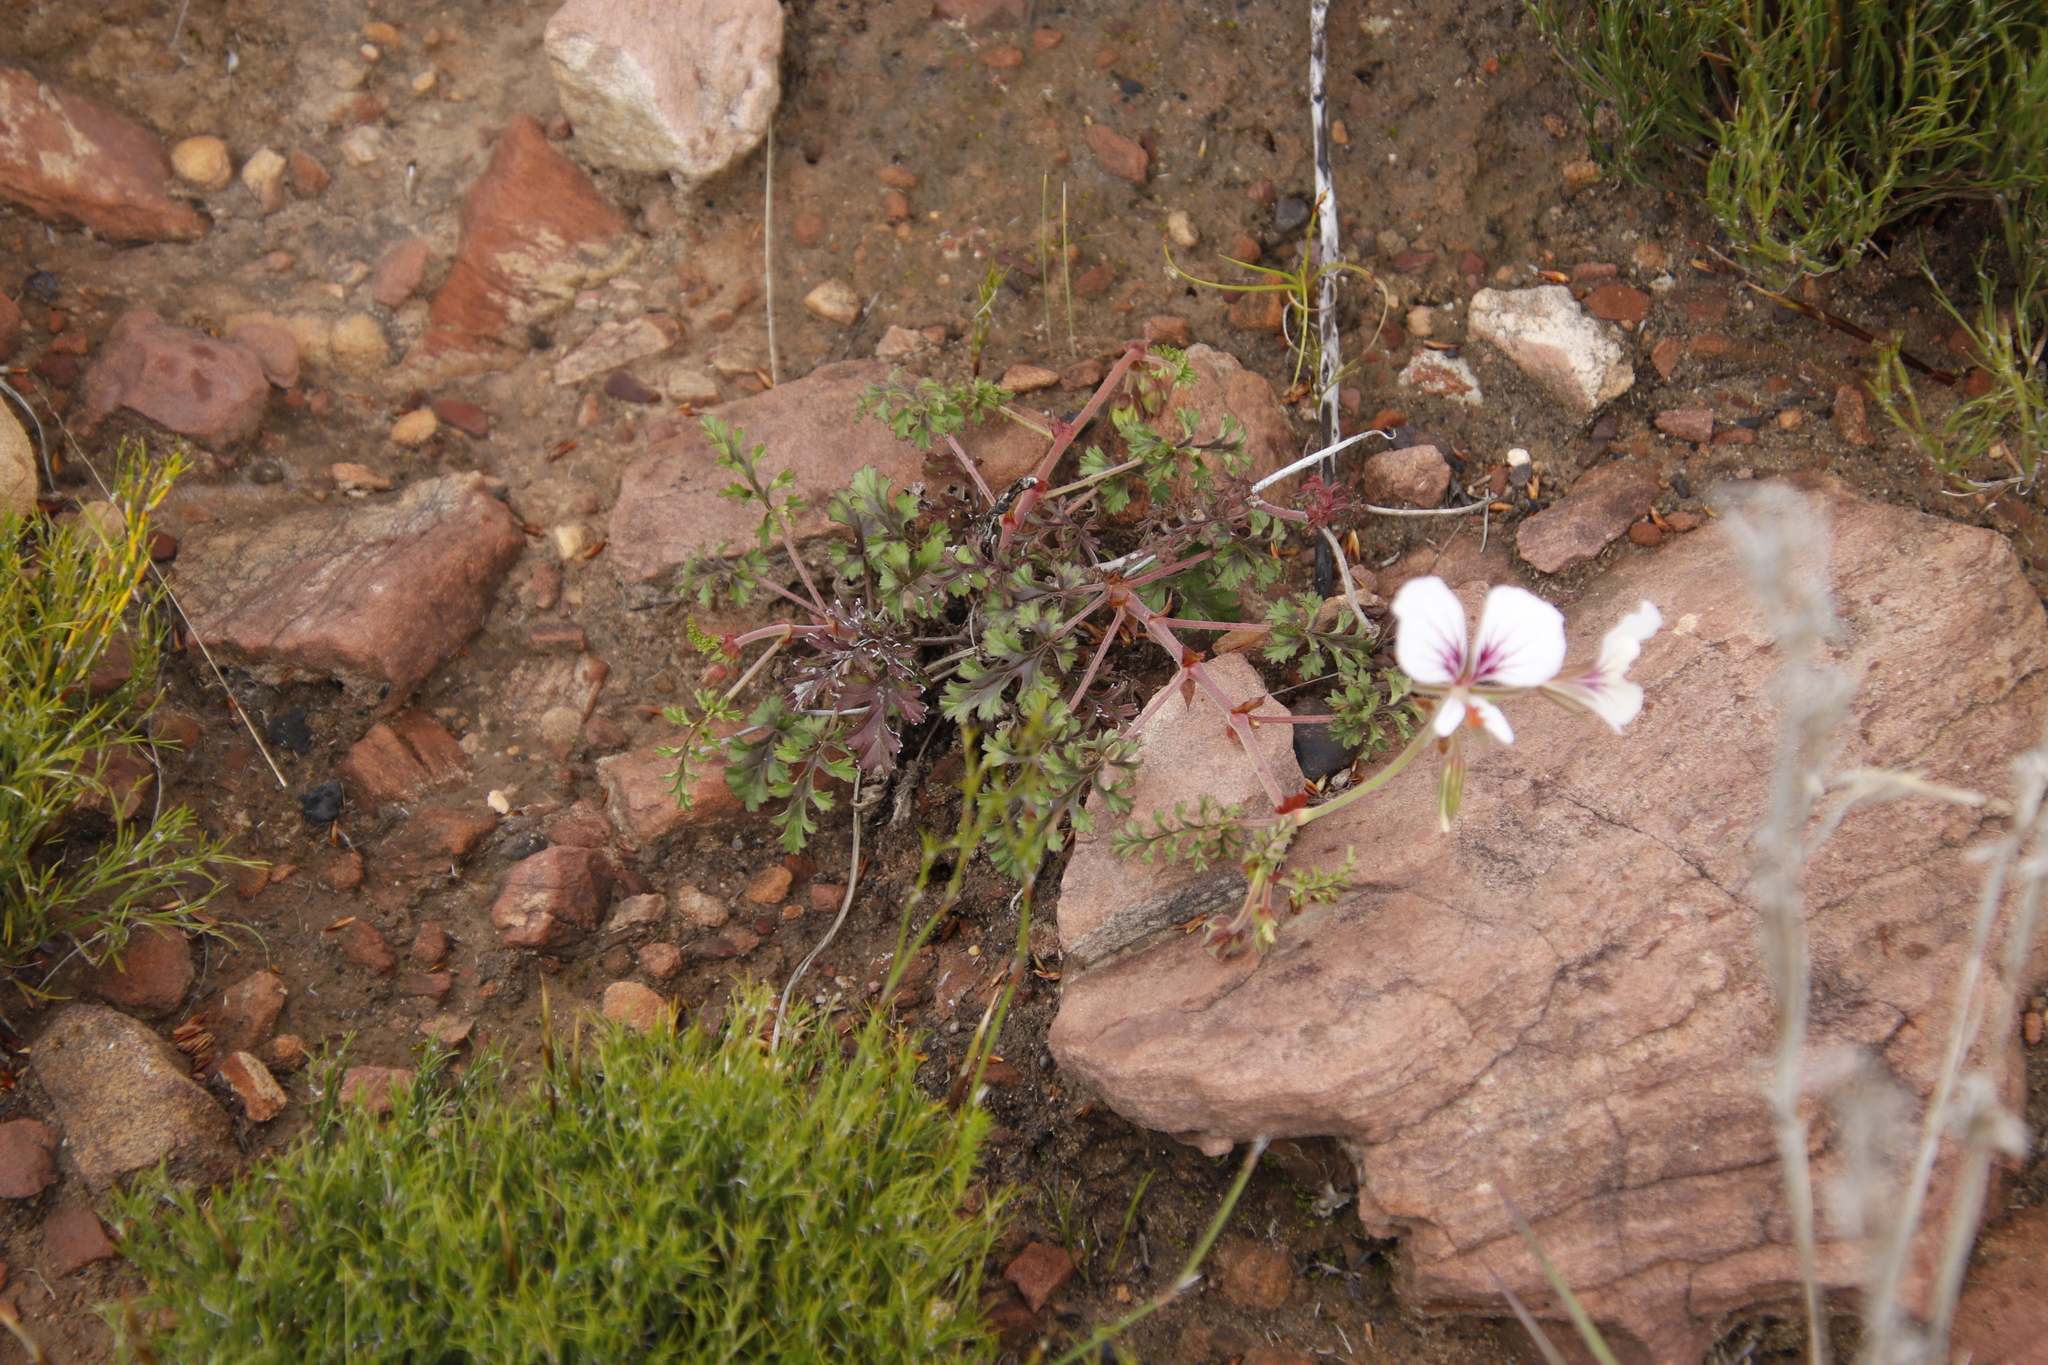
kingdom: Plantae
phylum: Tracheophyta
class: Magnoliopsida
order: Geraniales
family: Geraniaceae
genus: Pelargonium
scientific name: Pelargonium longicaule
